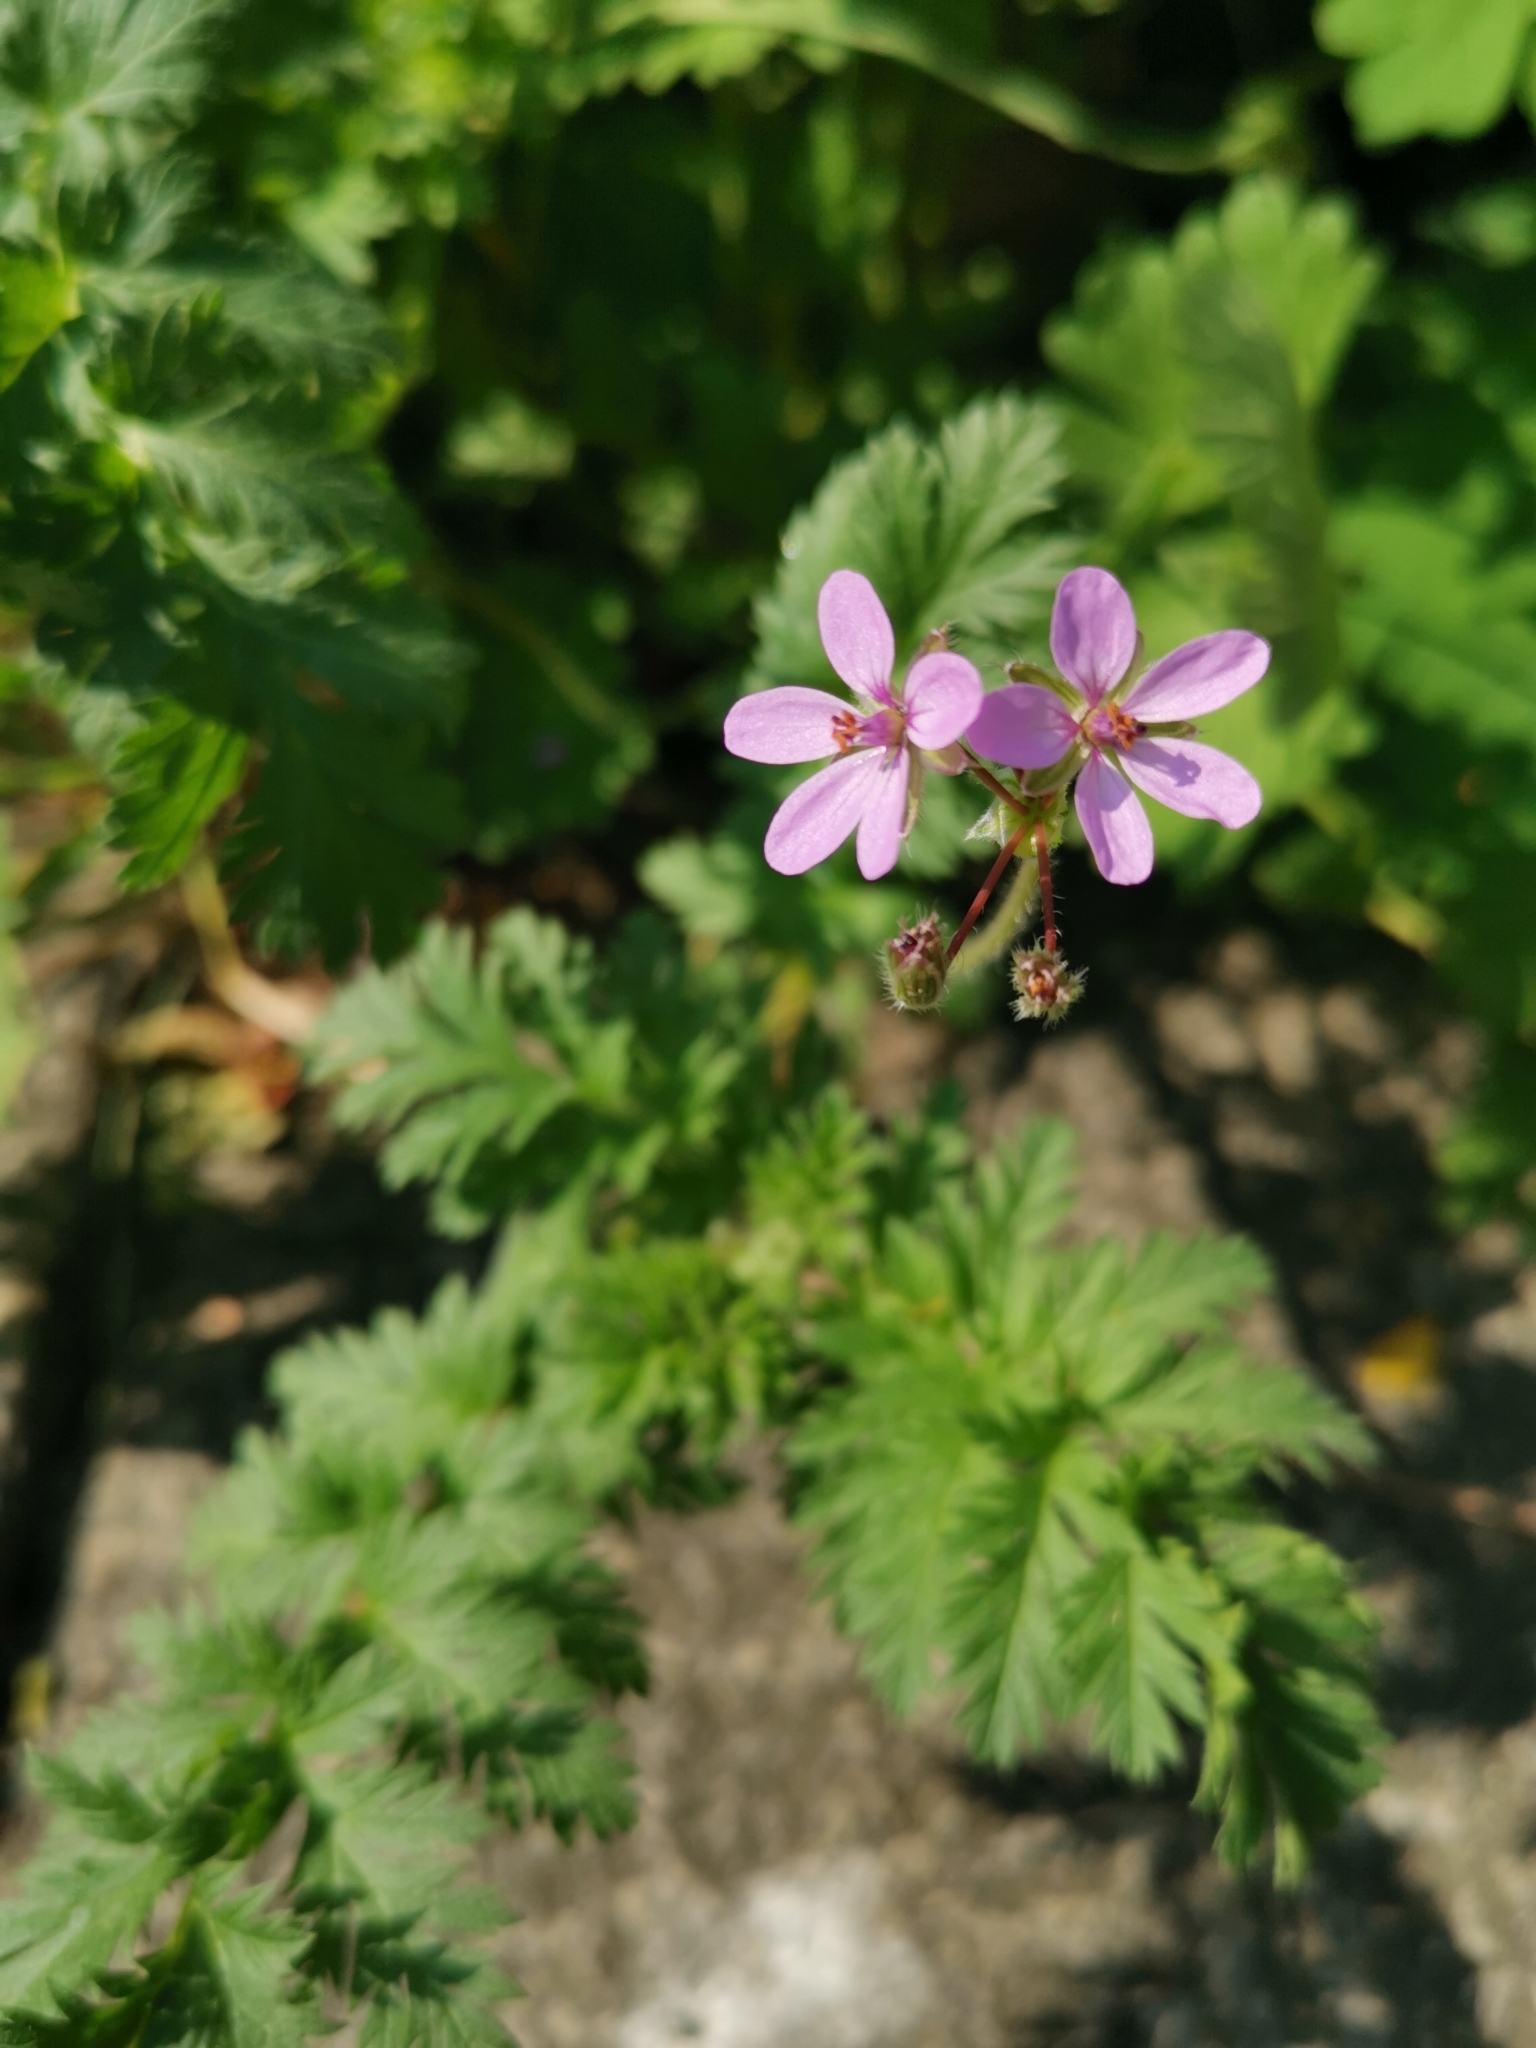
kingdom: Plantae
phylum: Tracheophyta
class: Magnoliopsida
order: Geraniales
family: Geraniaceae
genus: Erodium
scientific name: Erodium cicutarium
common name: Common stork's-bill
